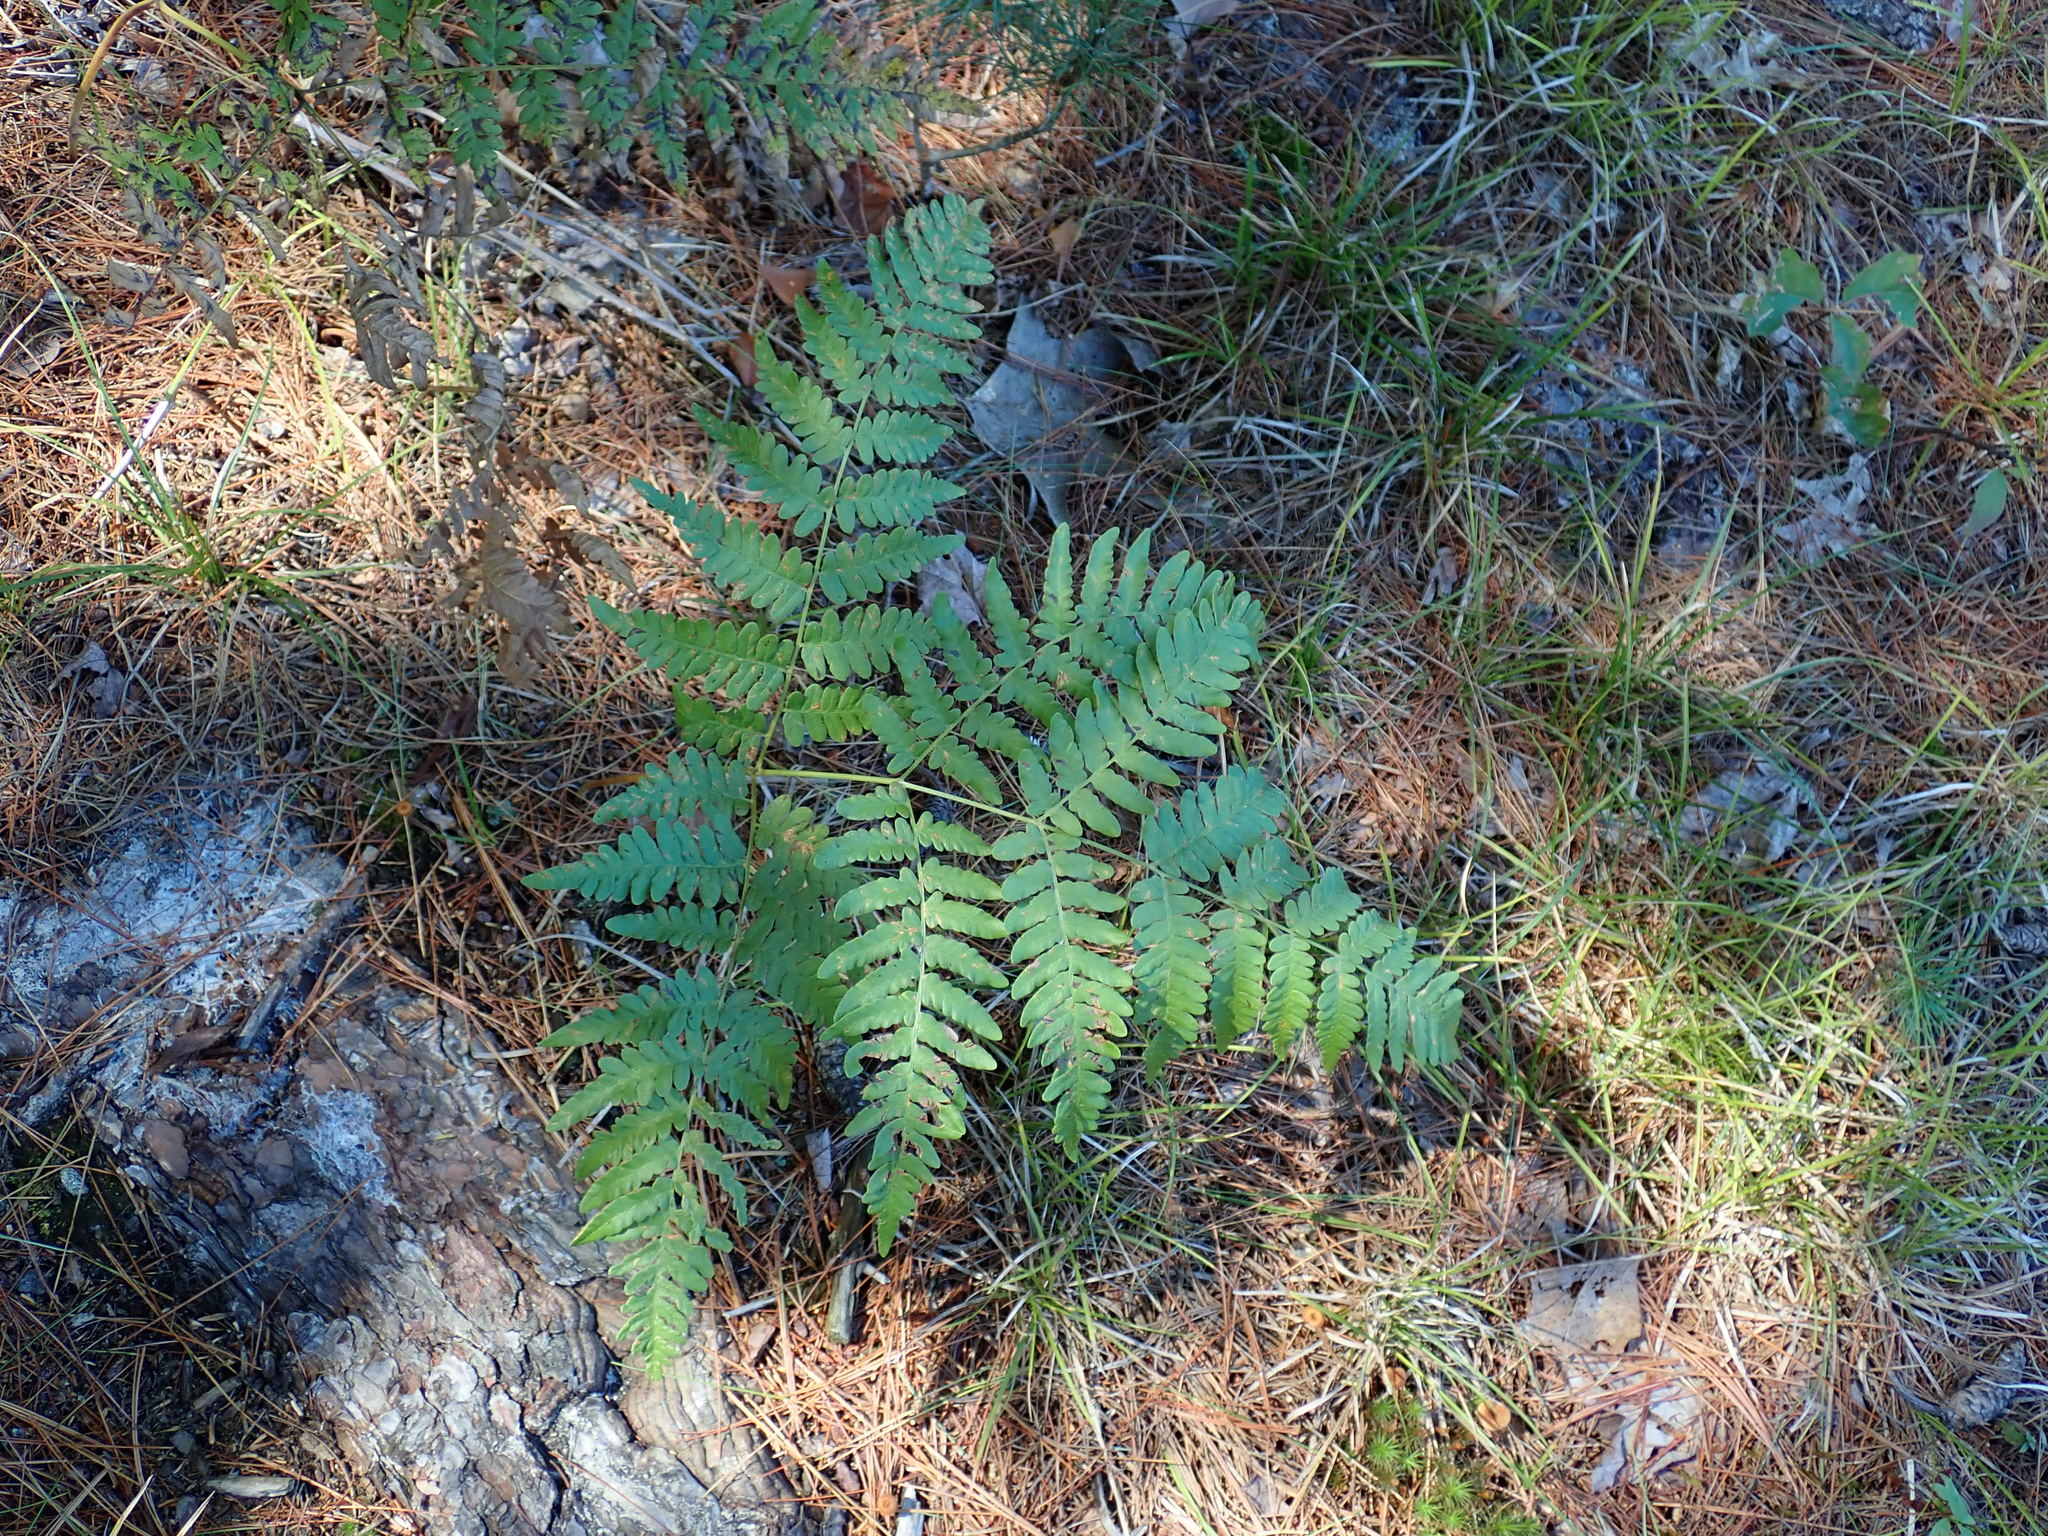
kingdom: Plantae
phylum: Tracheophyta
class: Polypodiopsida
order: Polypodiales
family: Dennstaedtiaceae
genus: Pteridium
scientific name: Pteridium aquilinum
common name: Bracken
